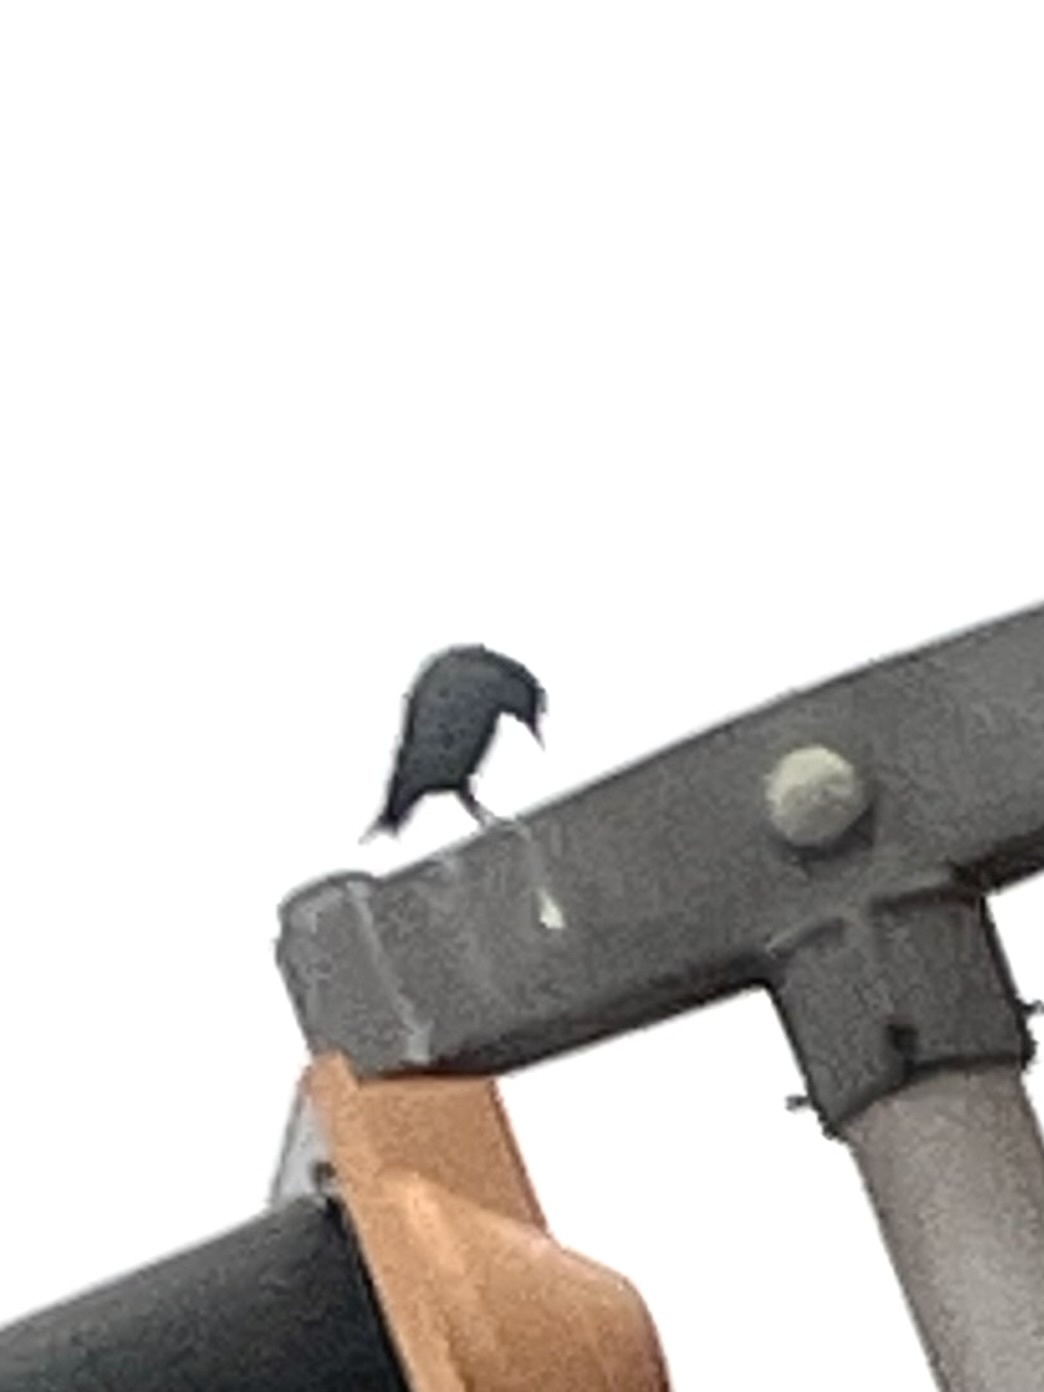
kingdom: Animalia
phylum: Chordata
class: Aves
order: Passeriformes
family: Sturnidae
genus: Sturnus
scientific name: Sturnus vulgaris
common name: Common starling
